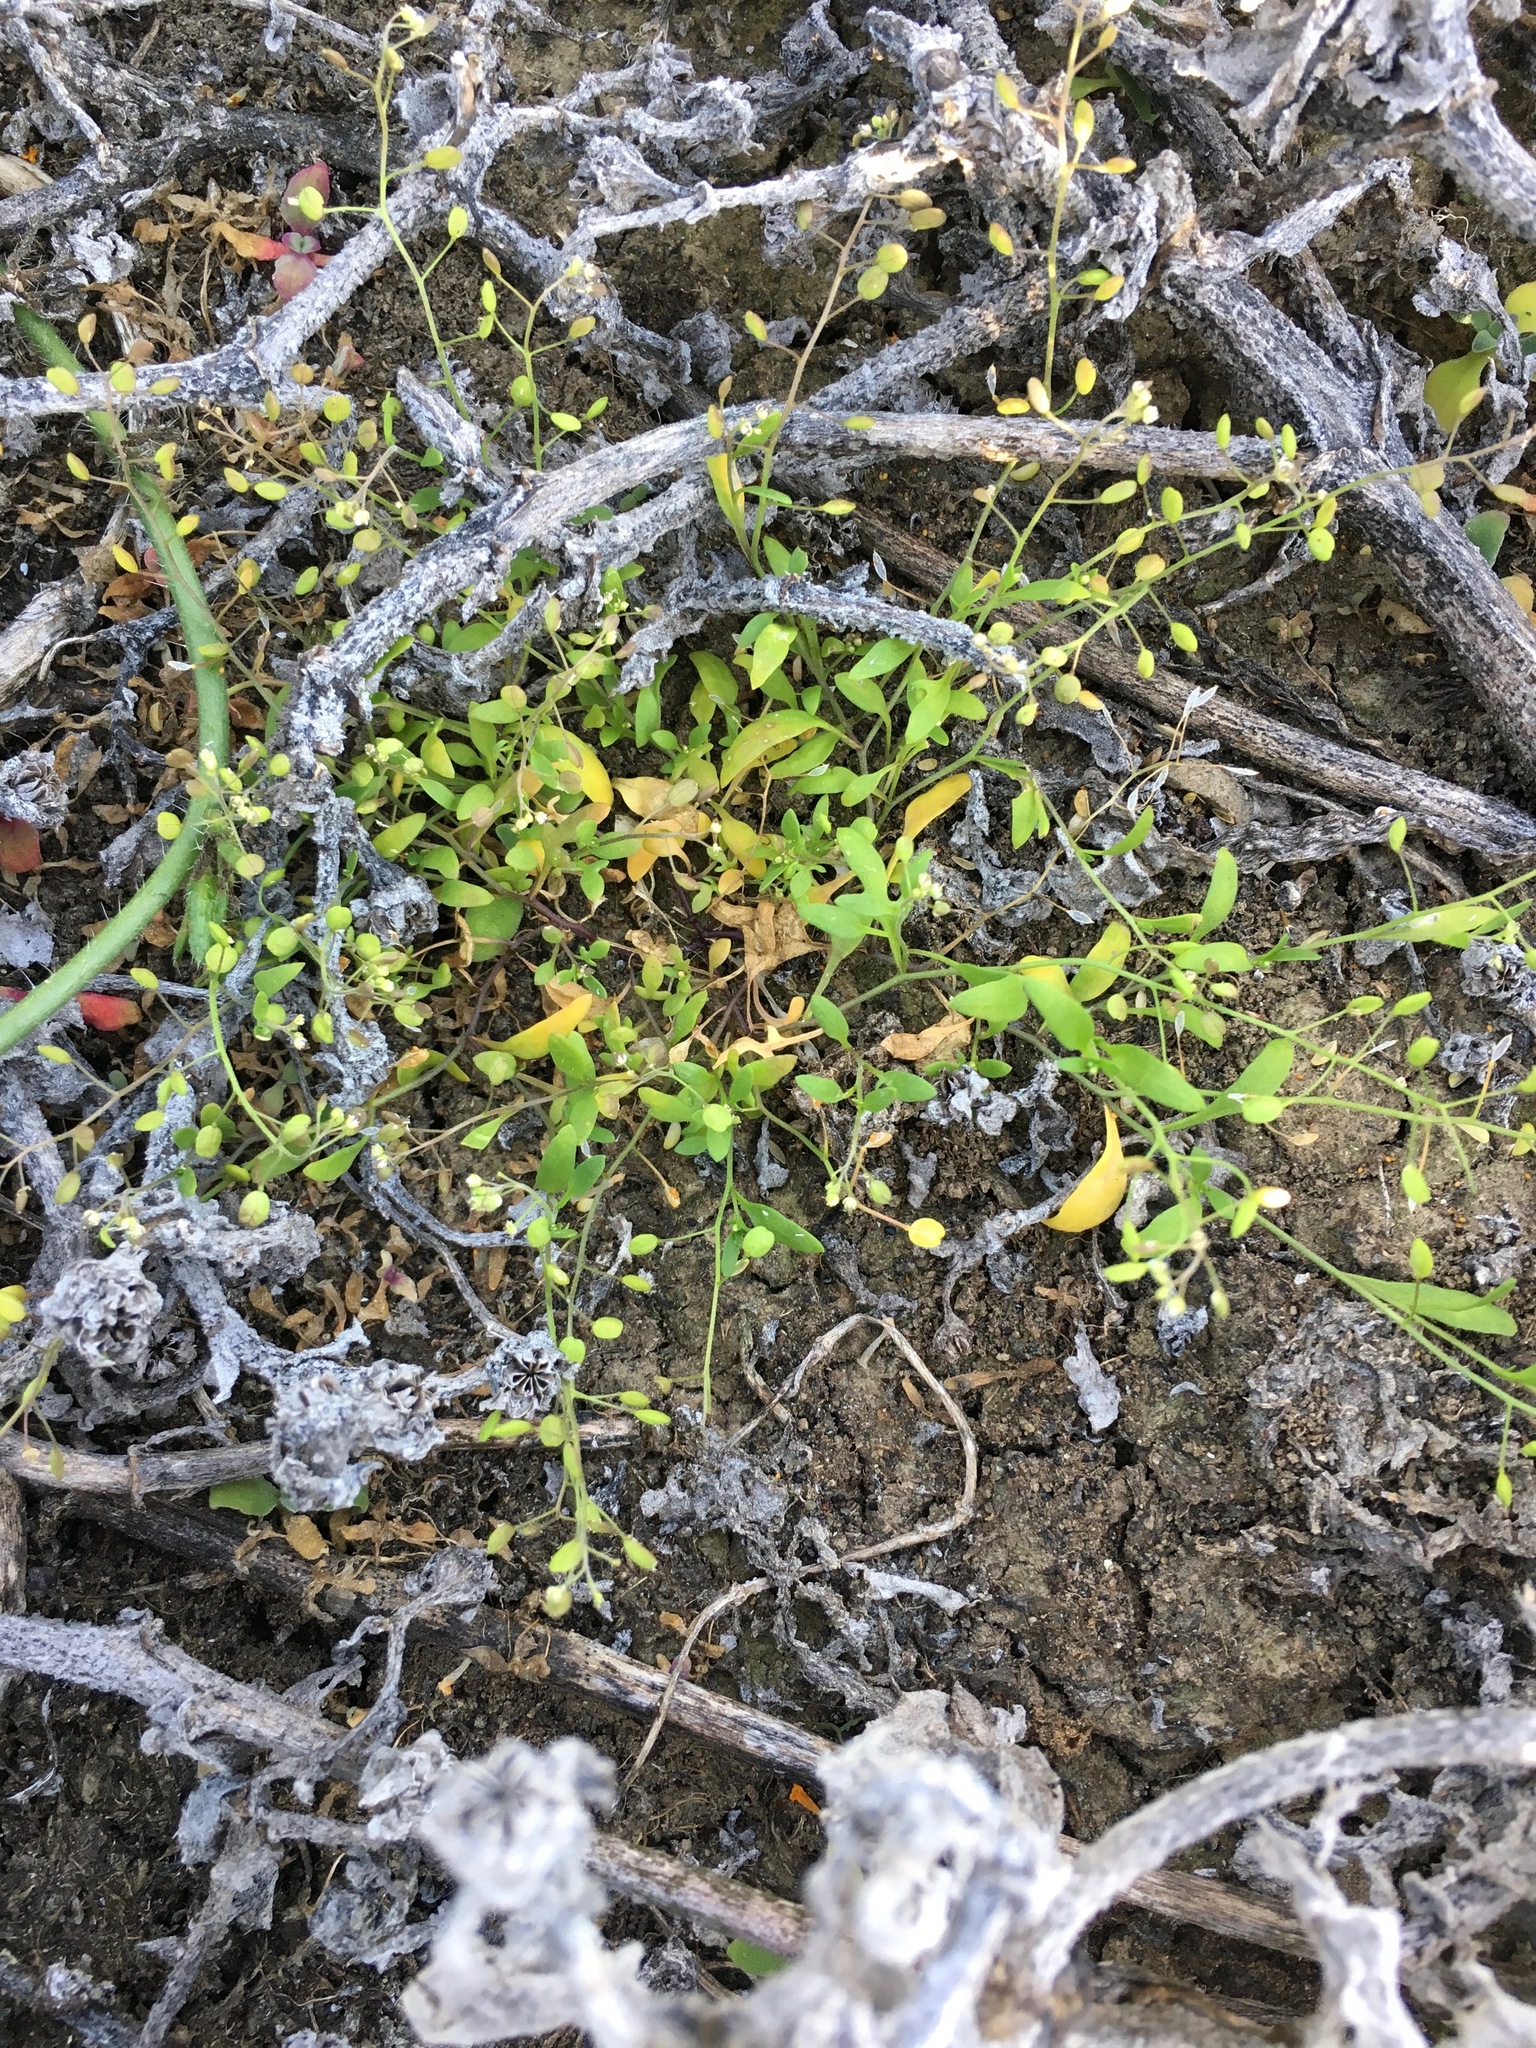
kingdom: Plantae
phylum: Tracheophyta
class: Magnoliopsida
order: Brassicales
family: Brassicaceae
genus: Hornungia
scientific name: Hornungia procumbens
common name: Oval purse
